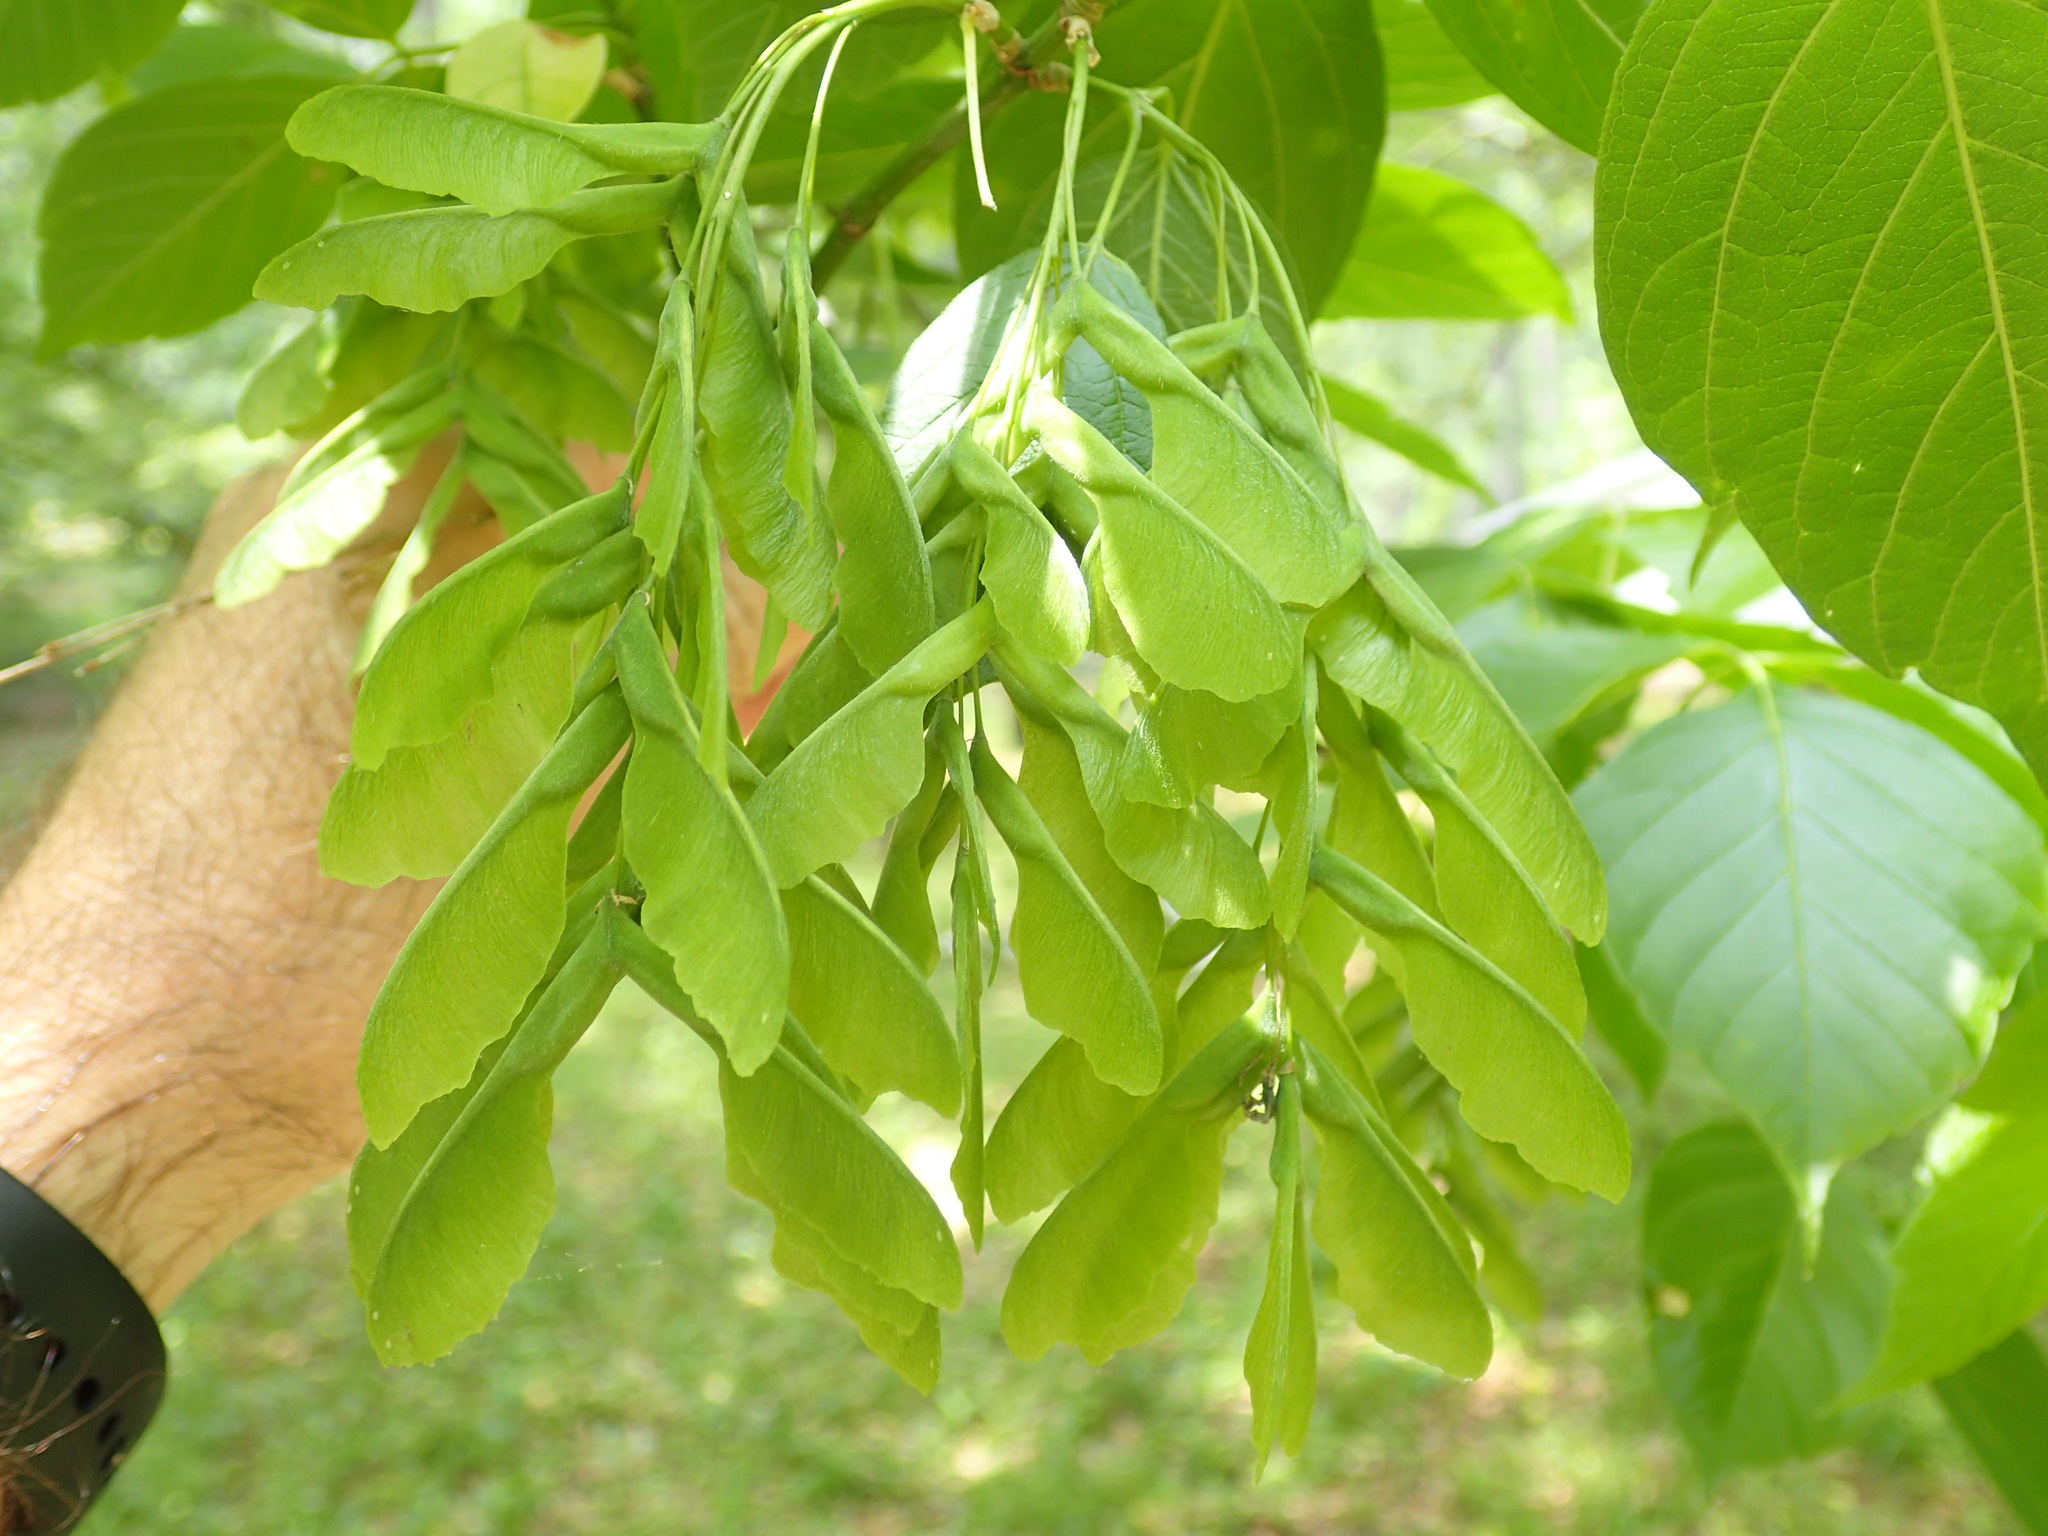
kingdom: Plantae
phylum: Tracheophyta
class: Magnoliopsida
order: Sapindales
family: Sapindaceae
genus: Acer
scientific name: Acer negundo
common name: Ashleaf maple
